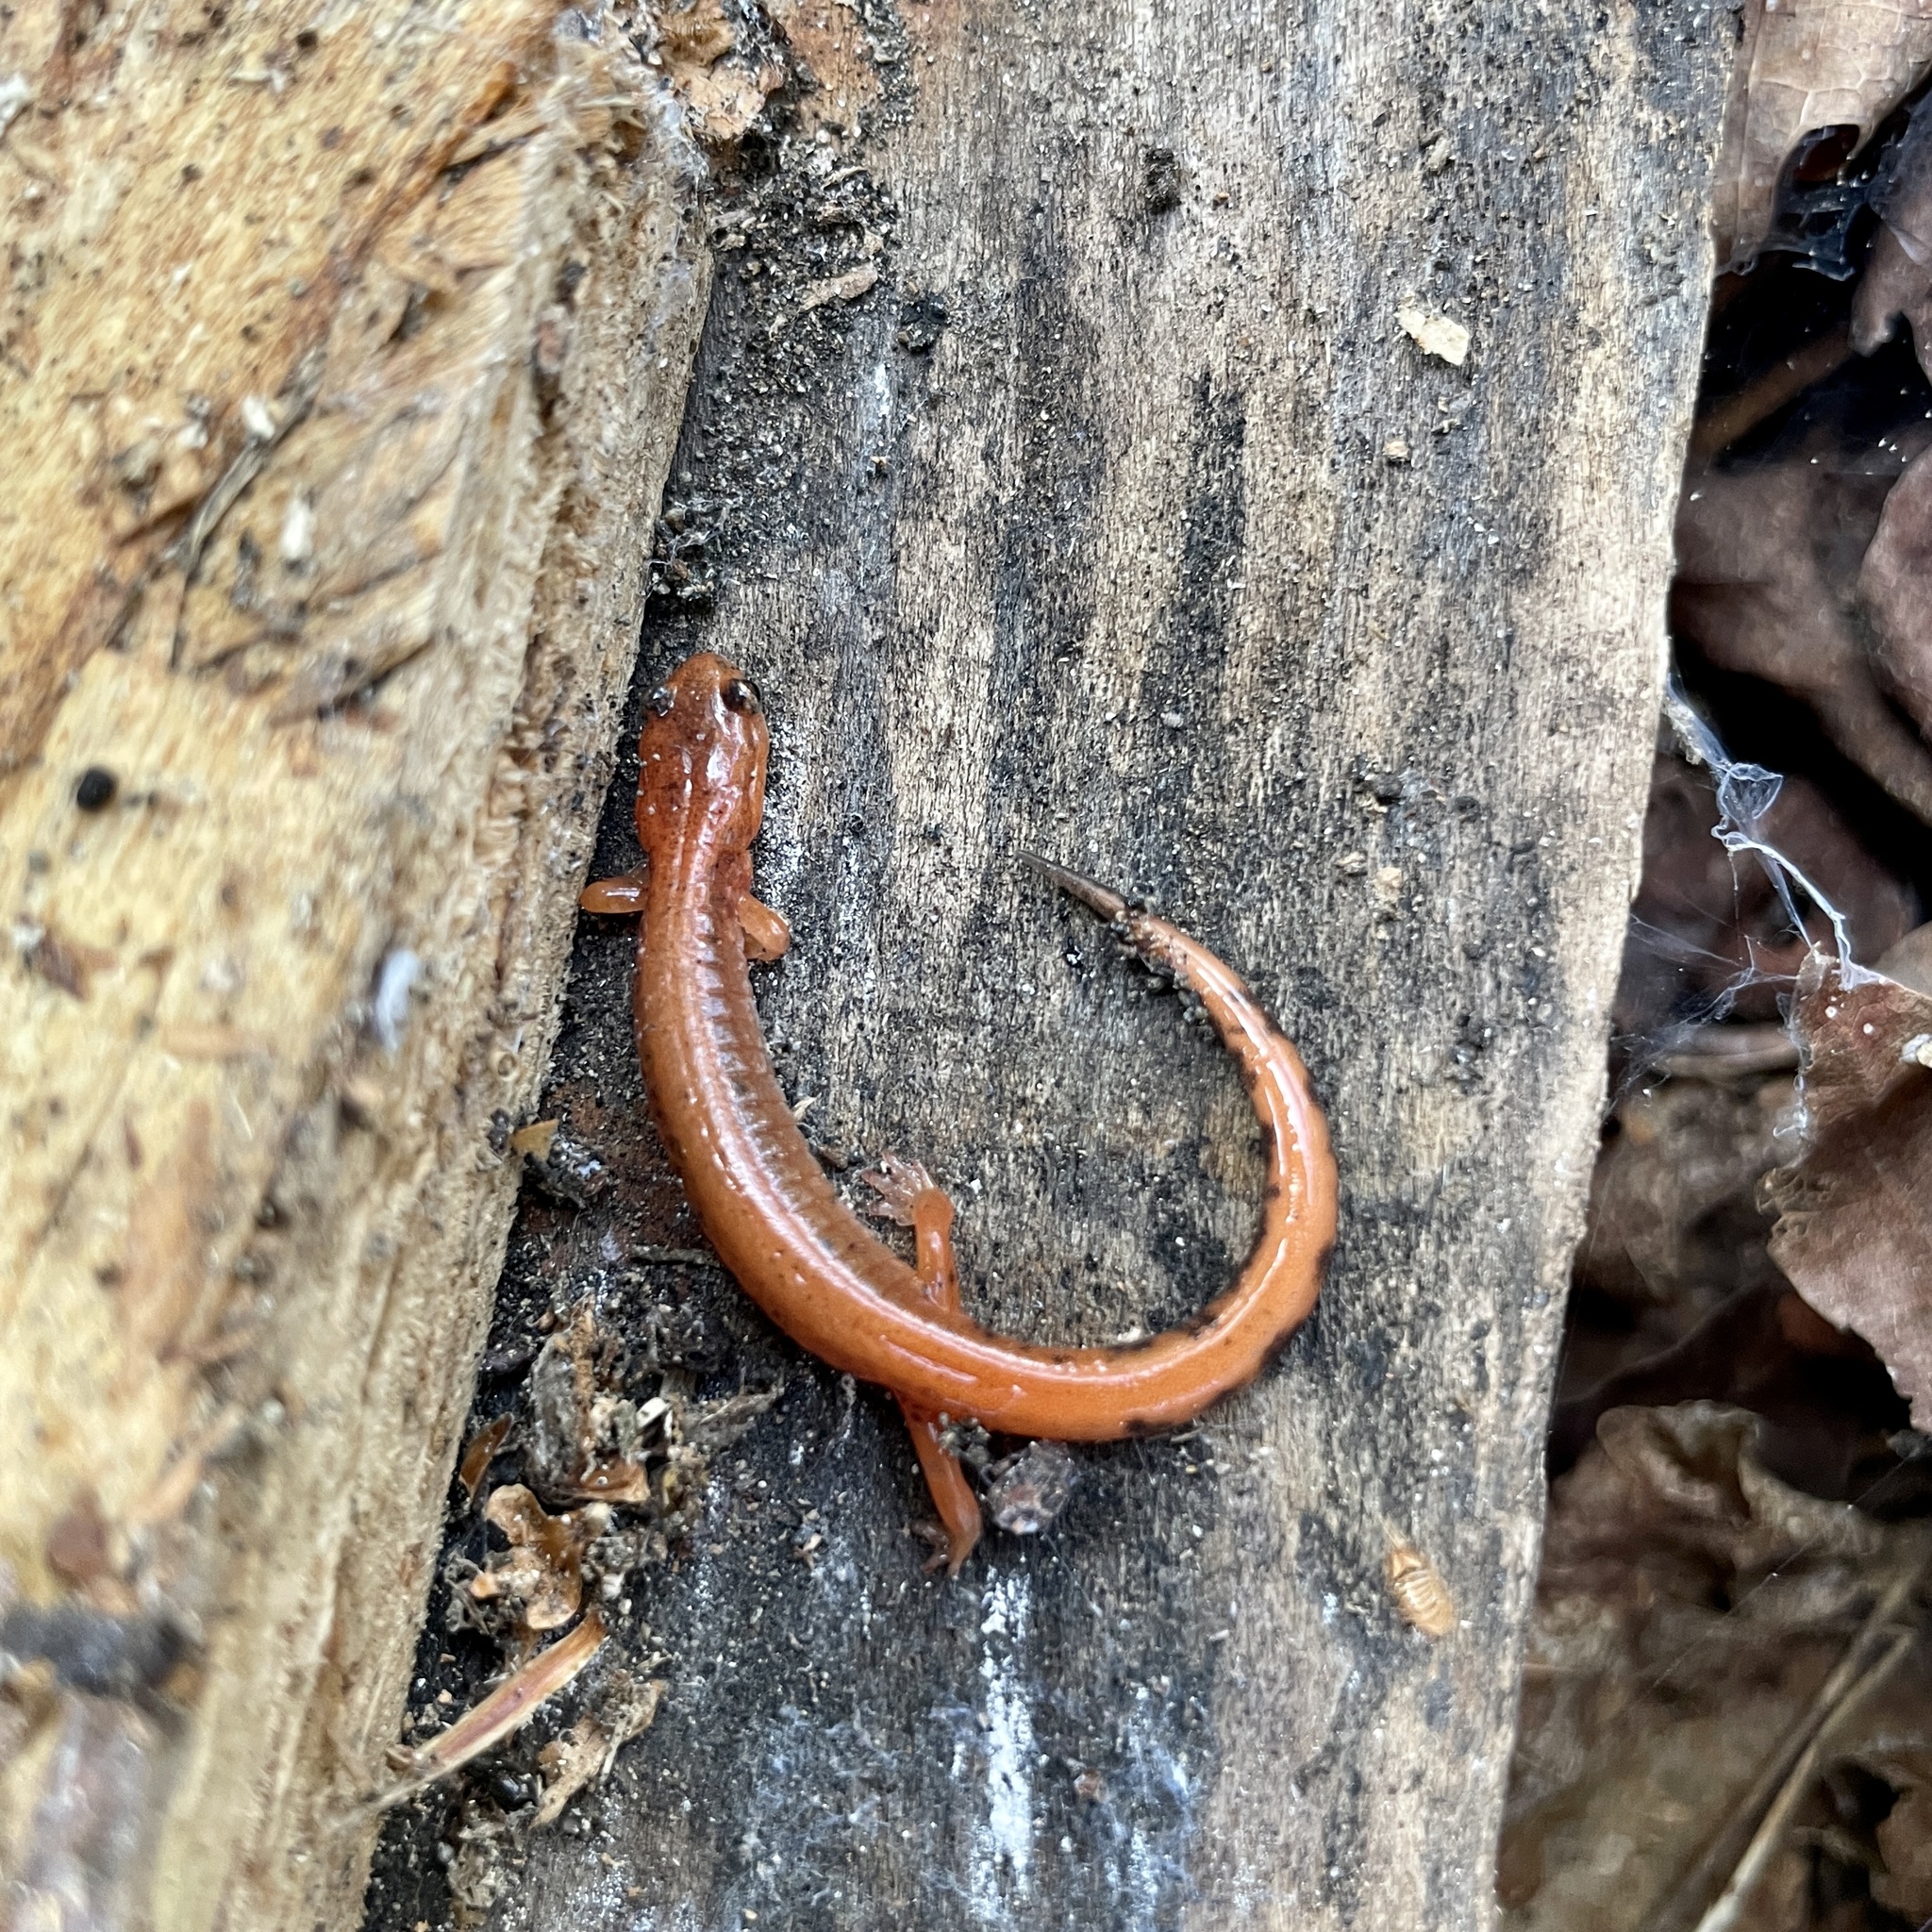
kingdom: Animalia
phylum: Chordata
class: Amphibia
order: Caudata
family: Plethodontidae
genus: Plethodon
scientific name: Plethodon cinereus
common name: Redback salamander
